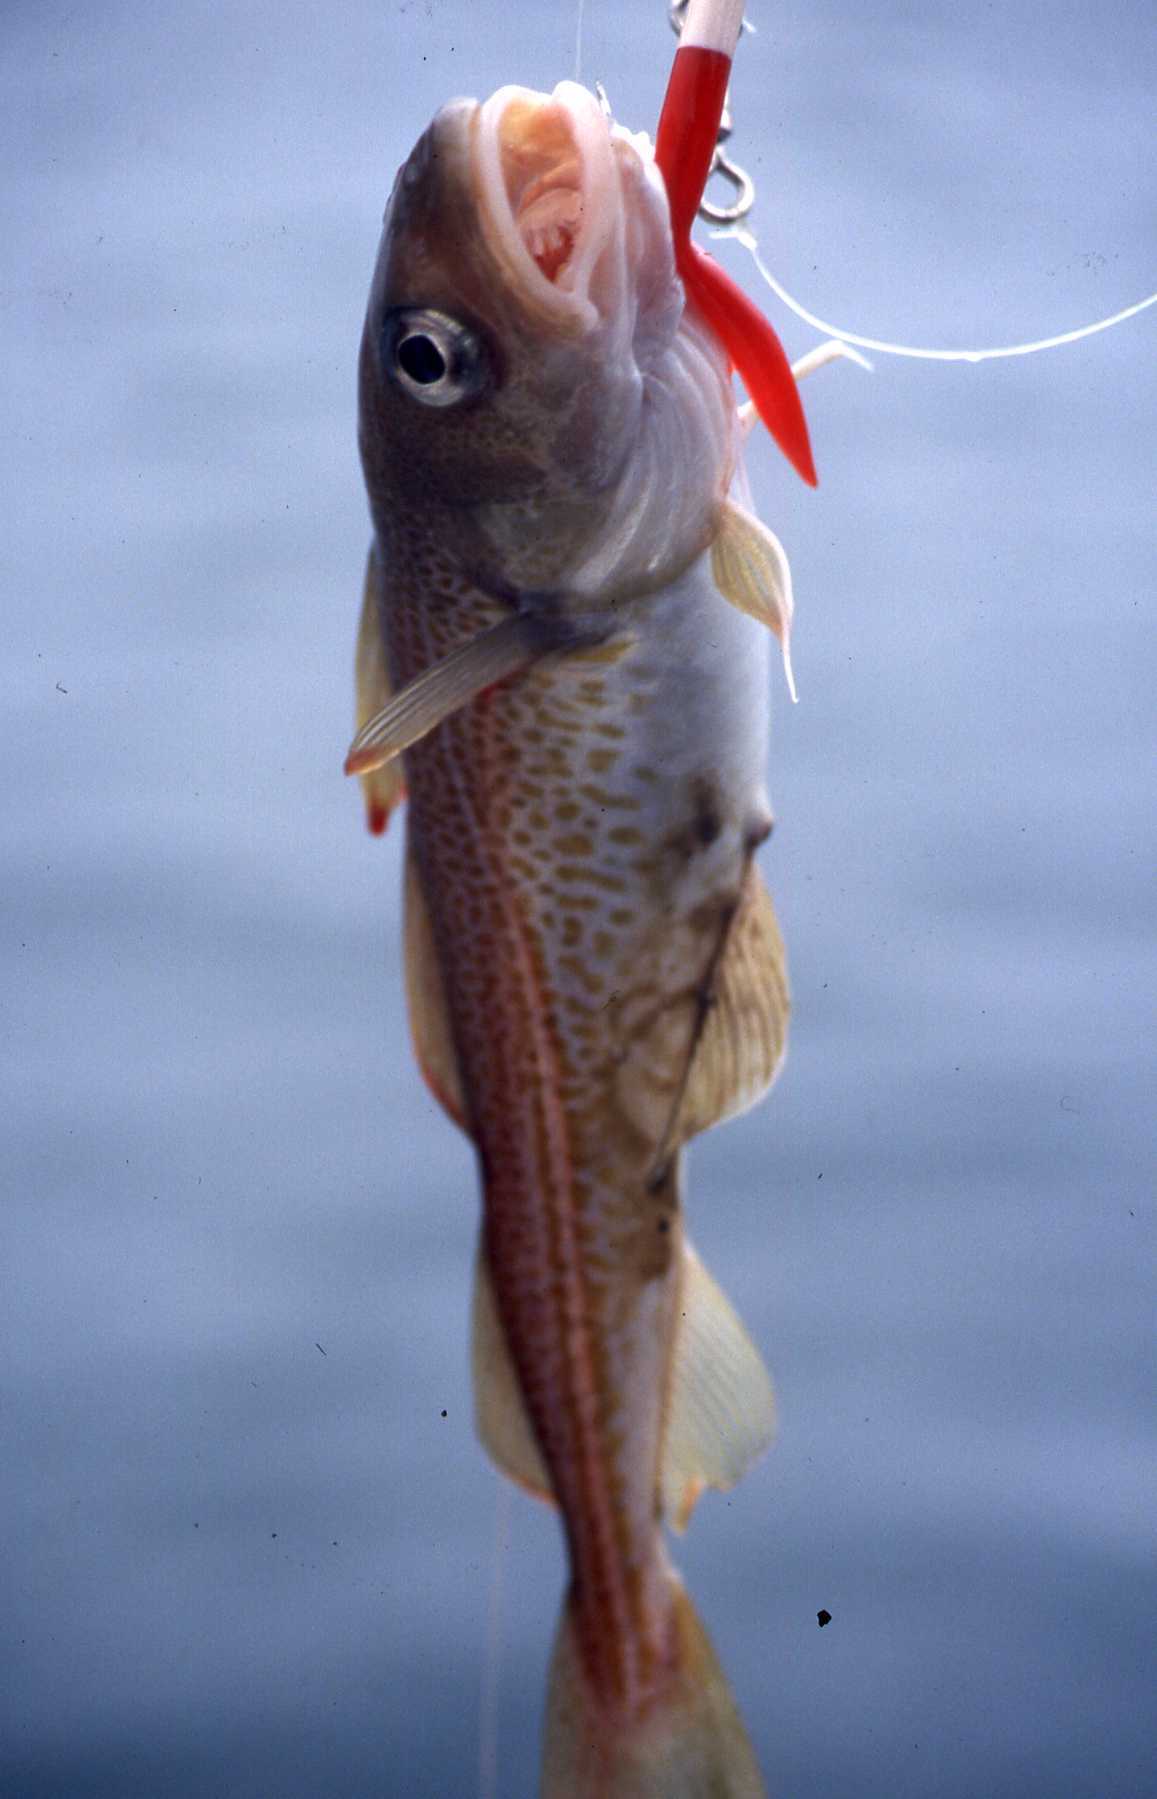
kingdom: Animalia
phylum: Chordata
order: Gadiformes
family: Gadidae
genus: Gadus
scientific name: Gadus morhua
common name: Atlantic cod
